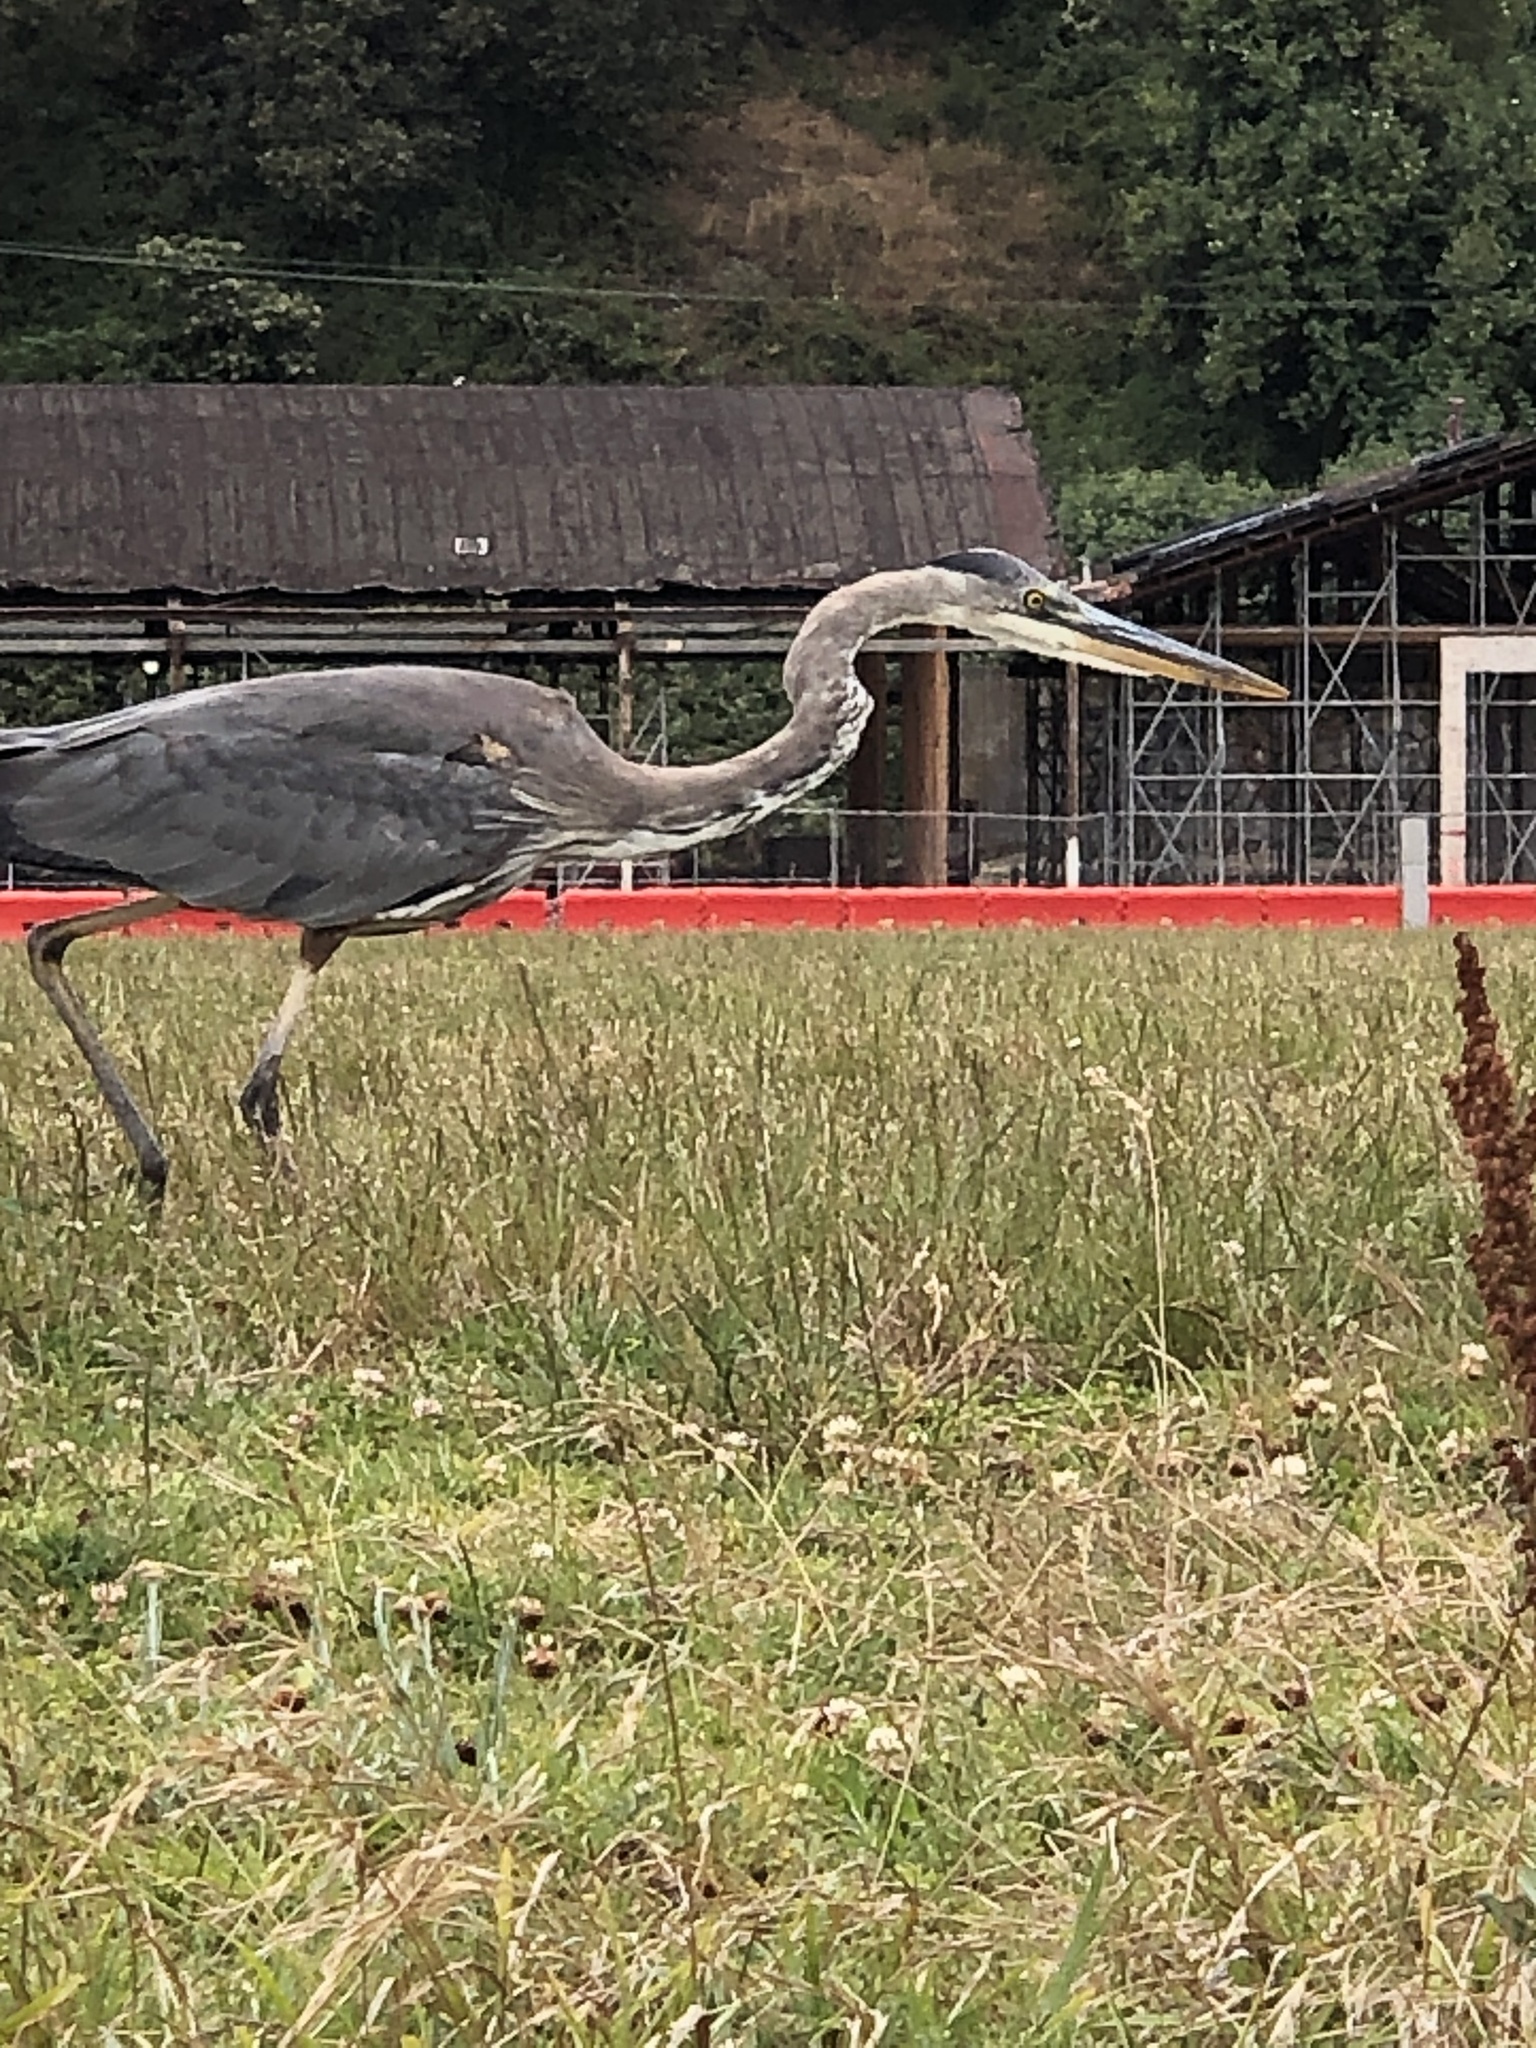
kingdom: Animalia
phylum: Chordata
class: Aves
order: Pelecaniformes
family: Ardeidae
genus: Ardea
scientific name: Ardea herodias
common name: Great blue heron
